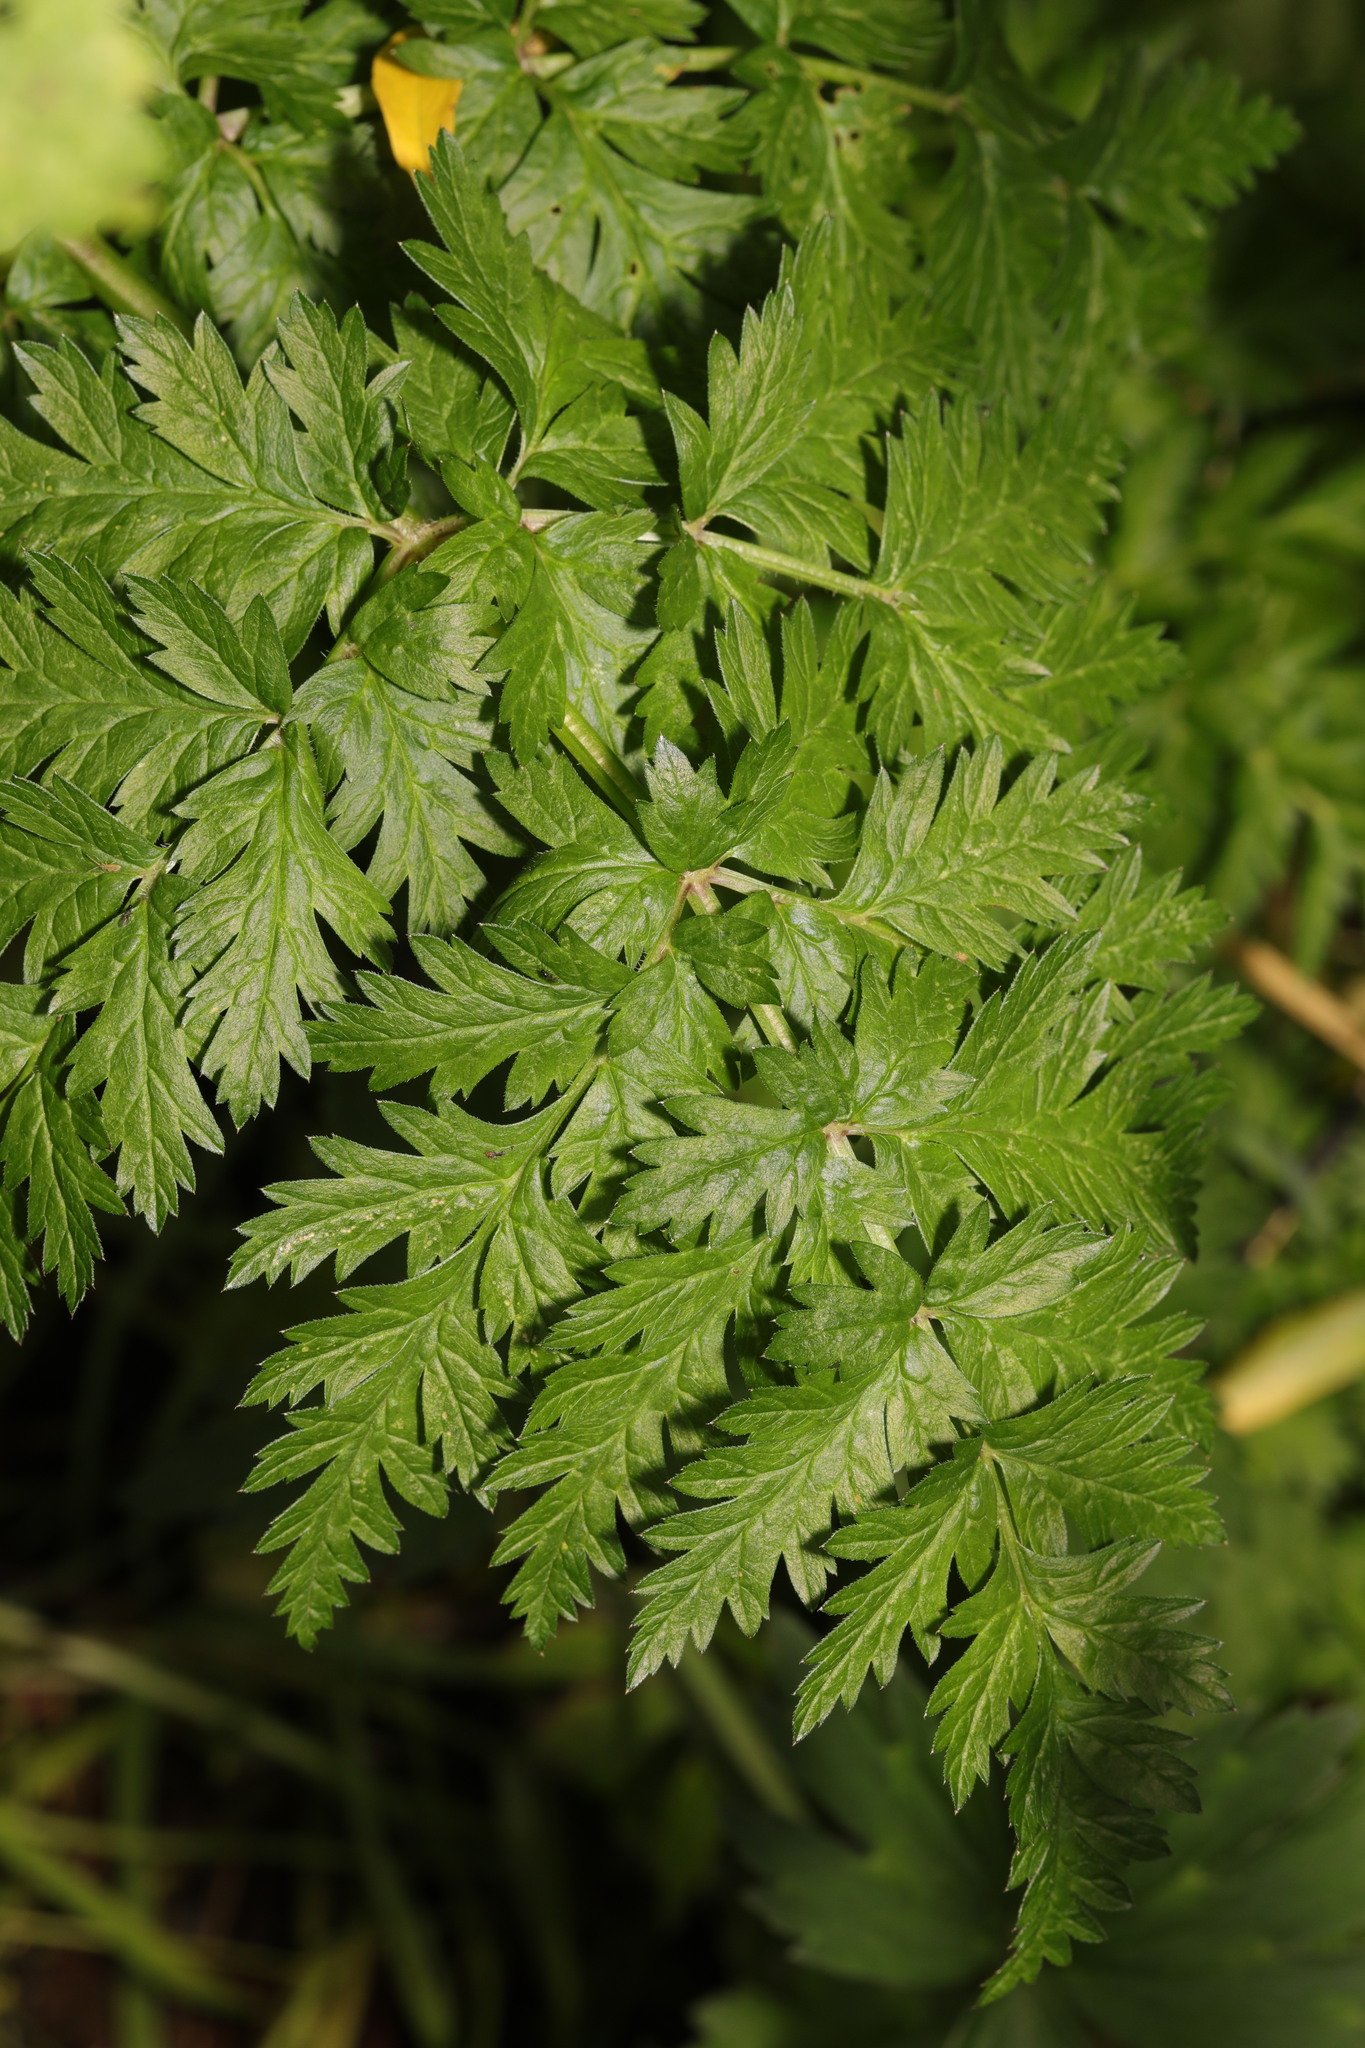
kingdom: Plantae
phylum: Tracheophyta
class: Magnoliopsida
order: Apiales
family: Apiaceae
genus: Anthriscus
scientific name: Anthriscus sylvestris
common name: Cow parsley
